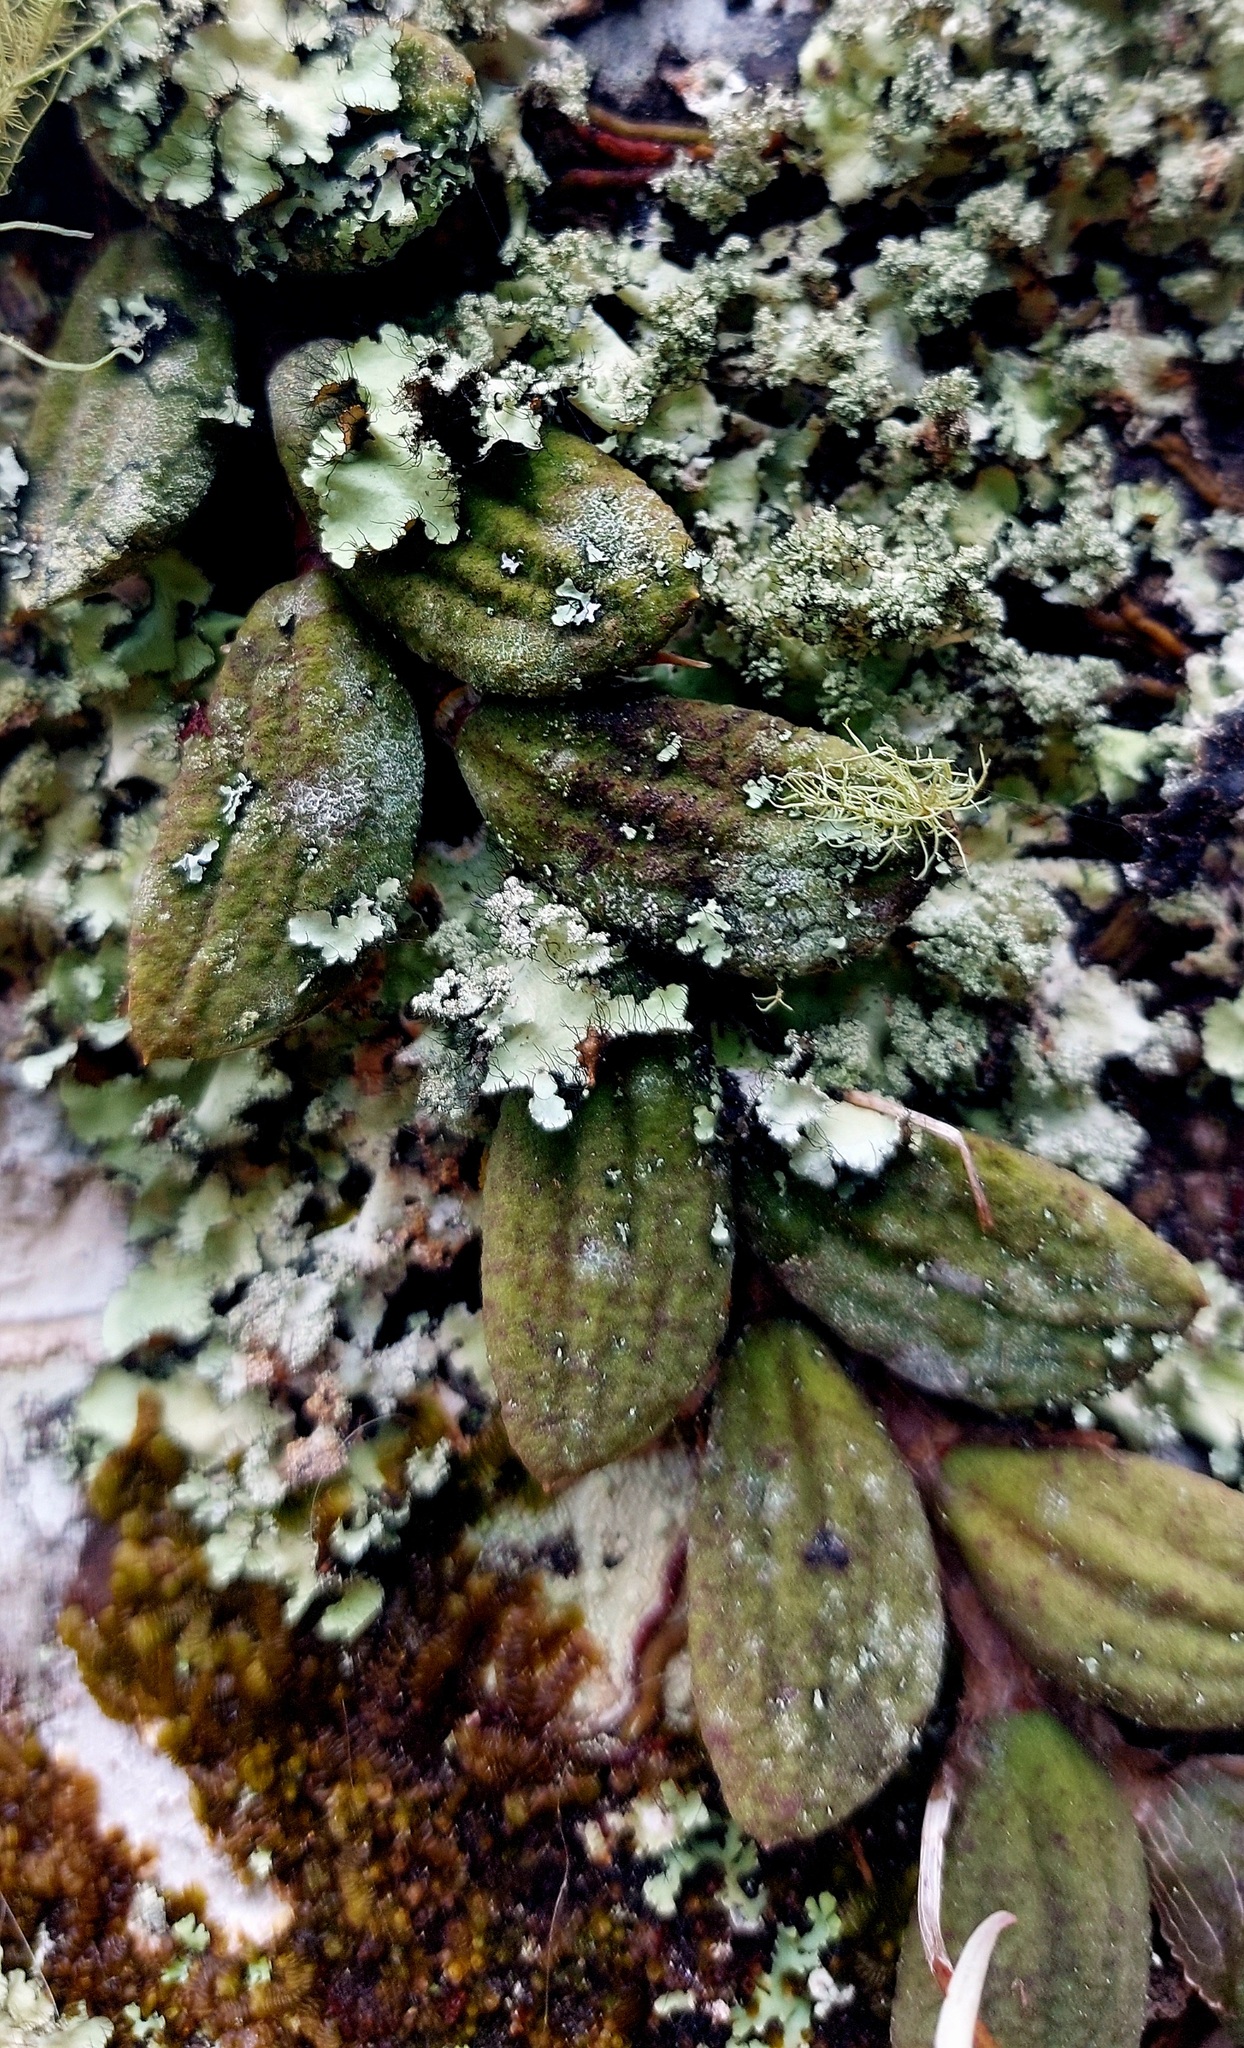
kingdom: Plantae
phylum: Tracheophyta
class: Liliopsida
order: Asparagales
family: Orchidaceae
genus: Dendrobium
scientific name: Dendrobium linguiforme
